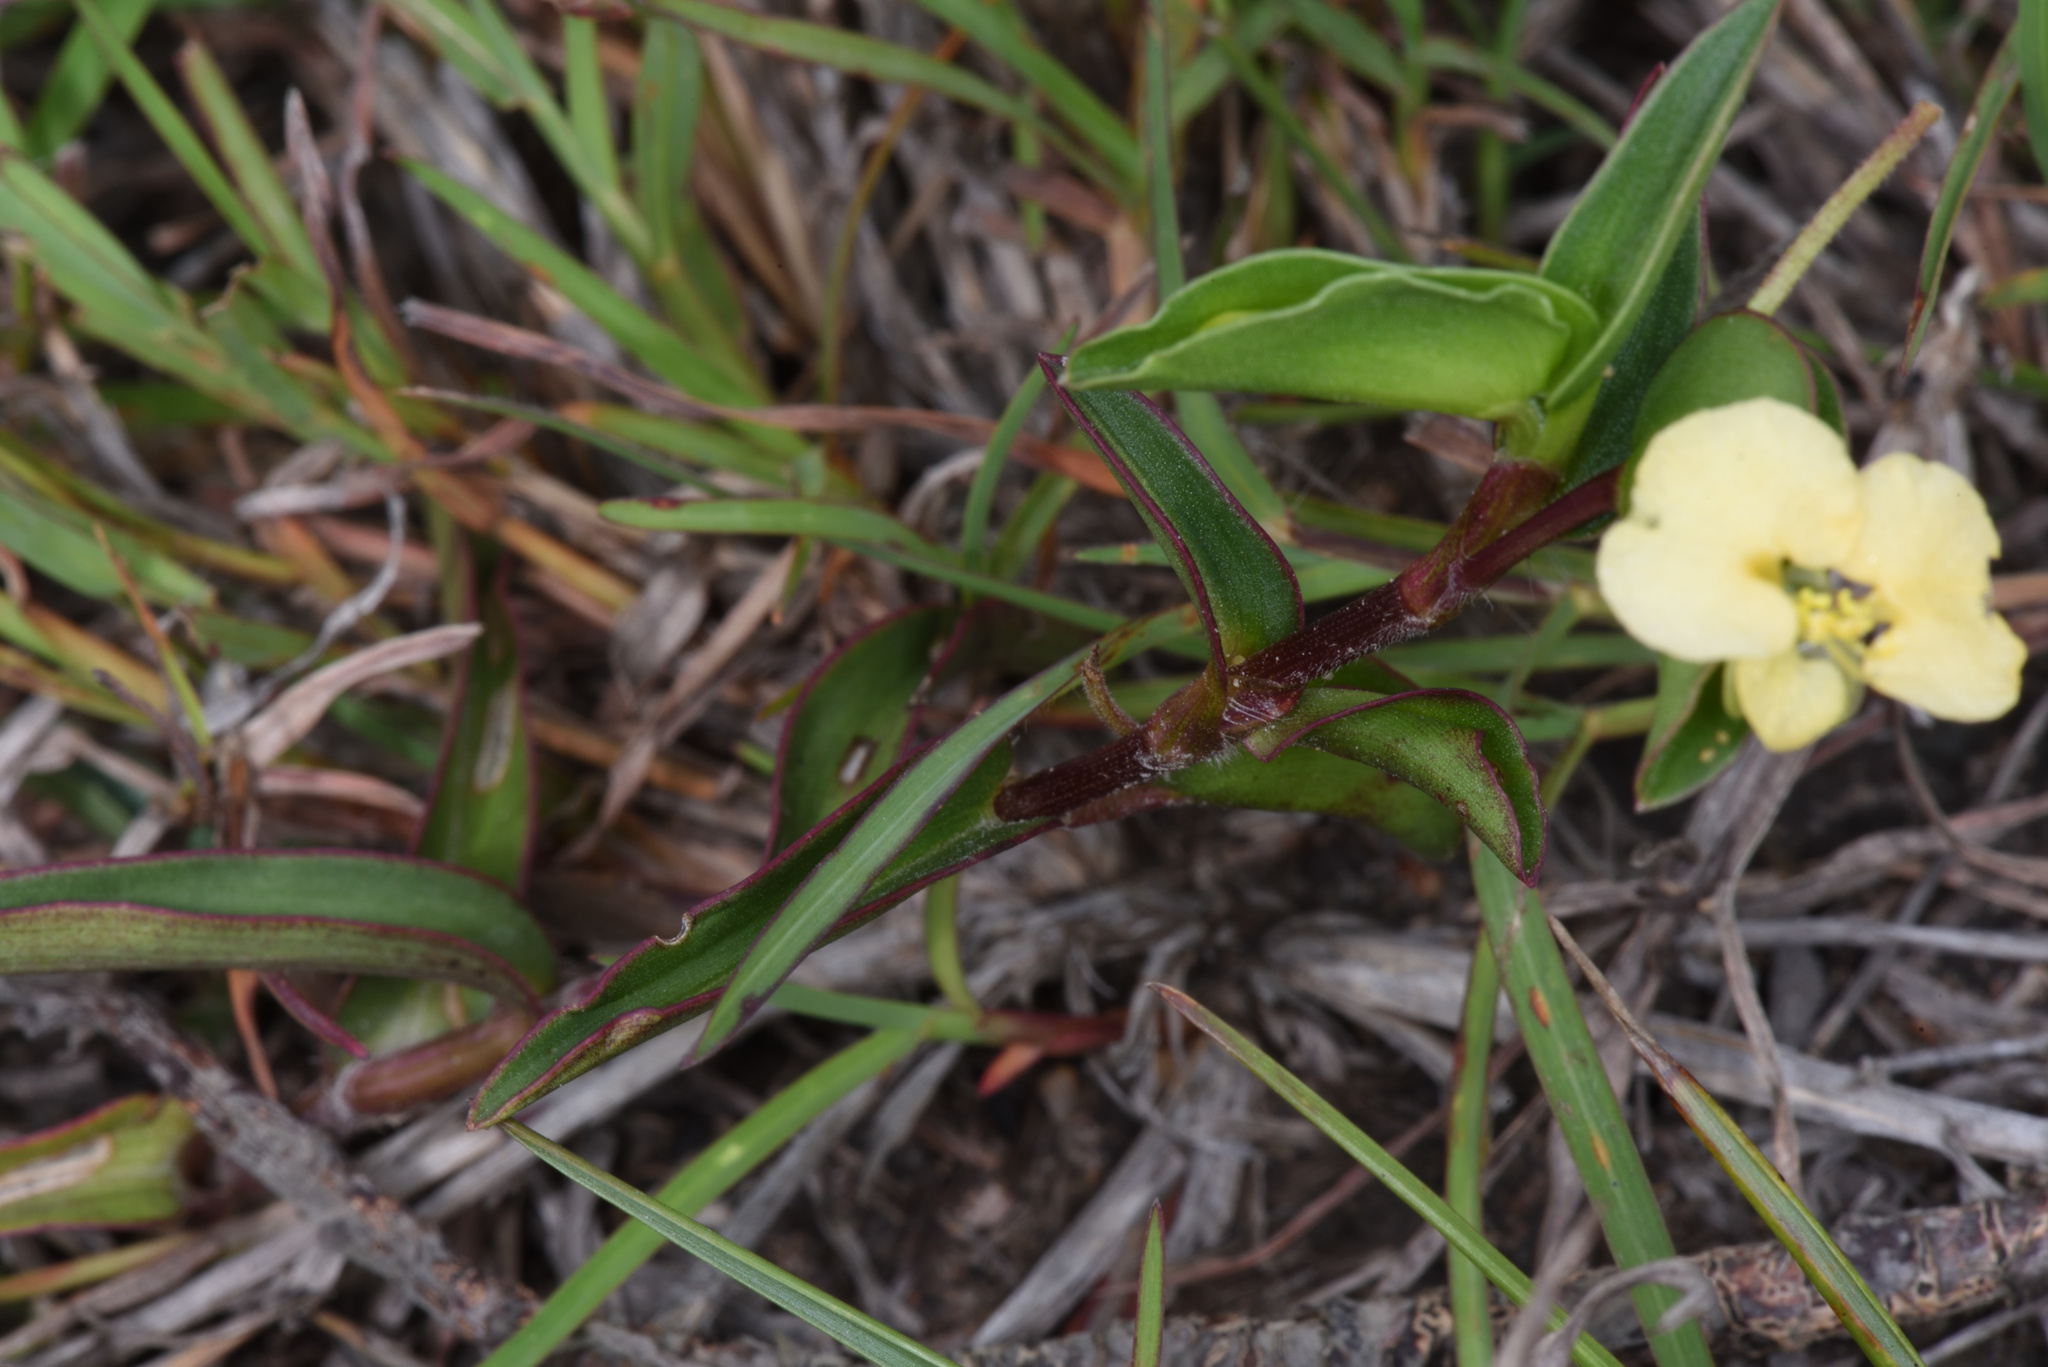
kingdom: Plantae
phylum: Tracheophyta
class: Liliopsida
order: Commelinales
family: Commelinaceae
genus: Commelina
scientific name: Commelina africana
